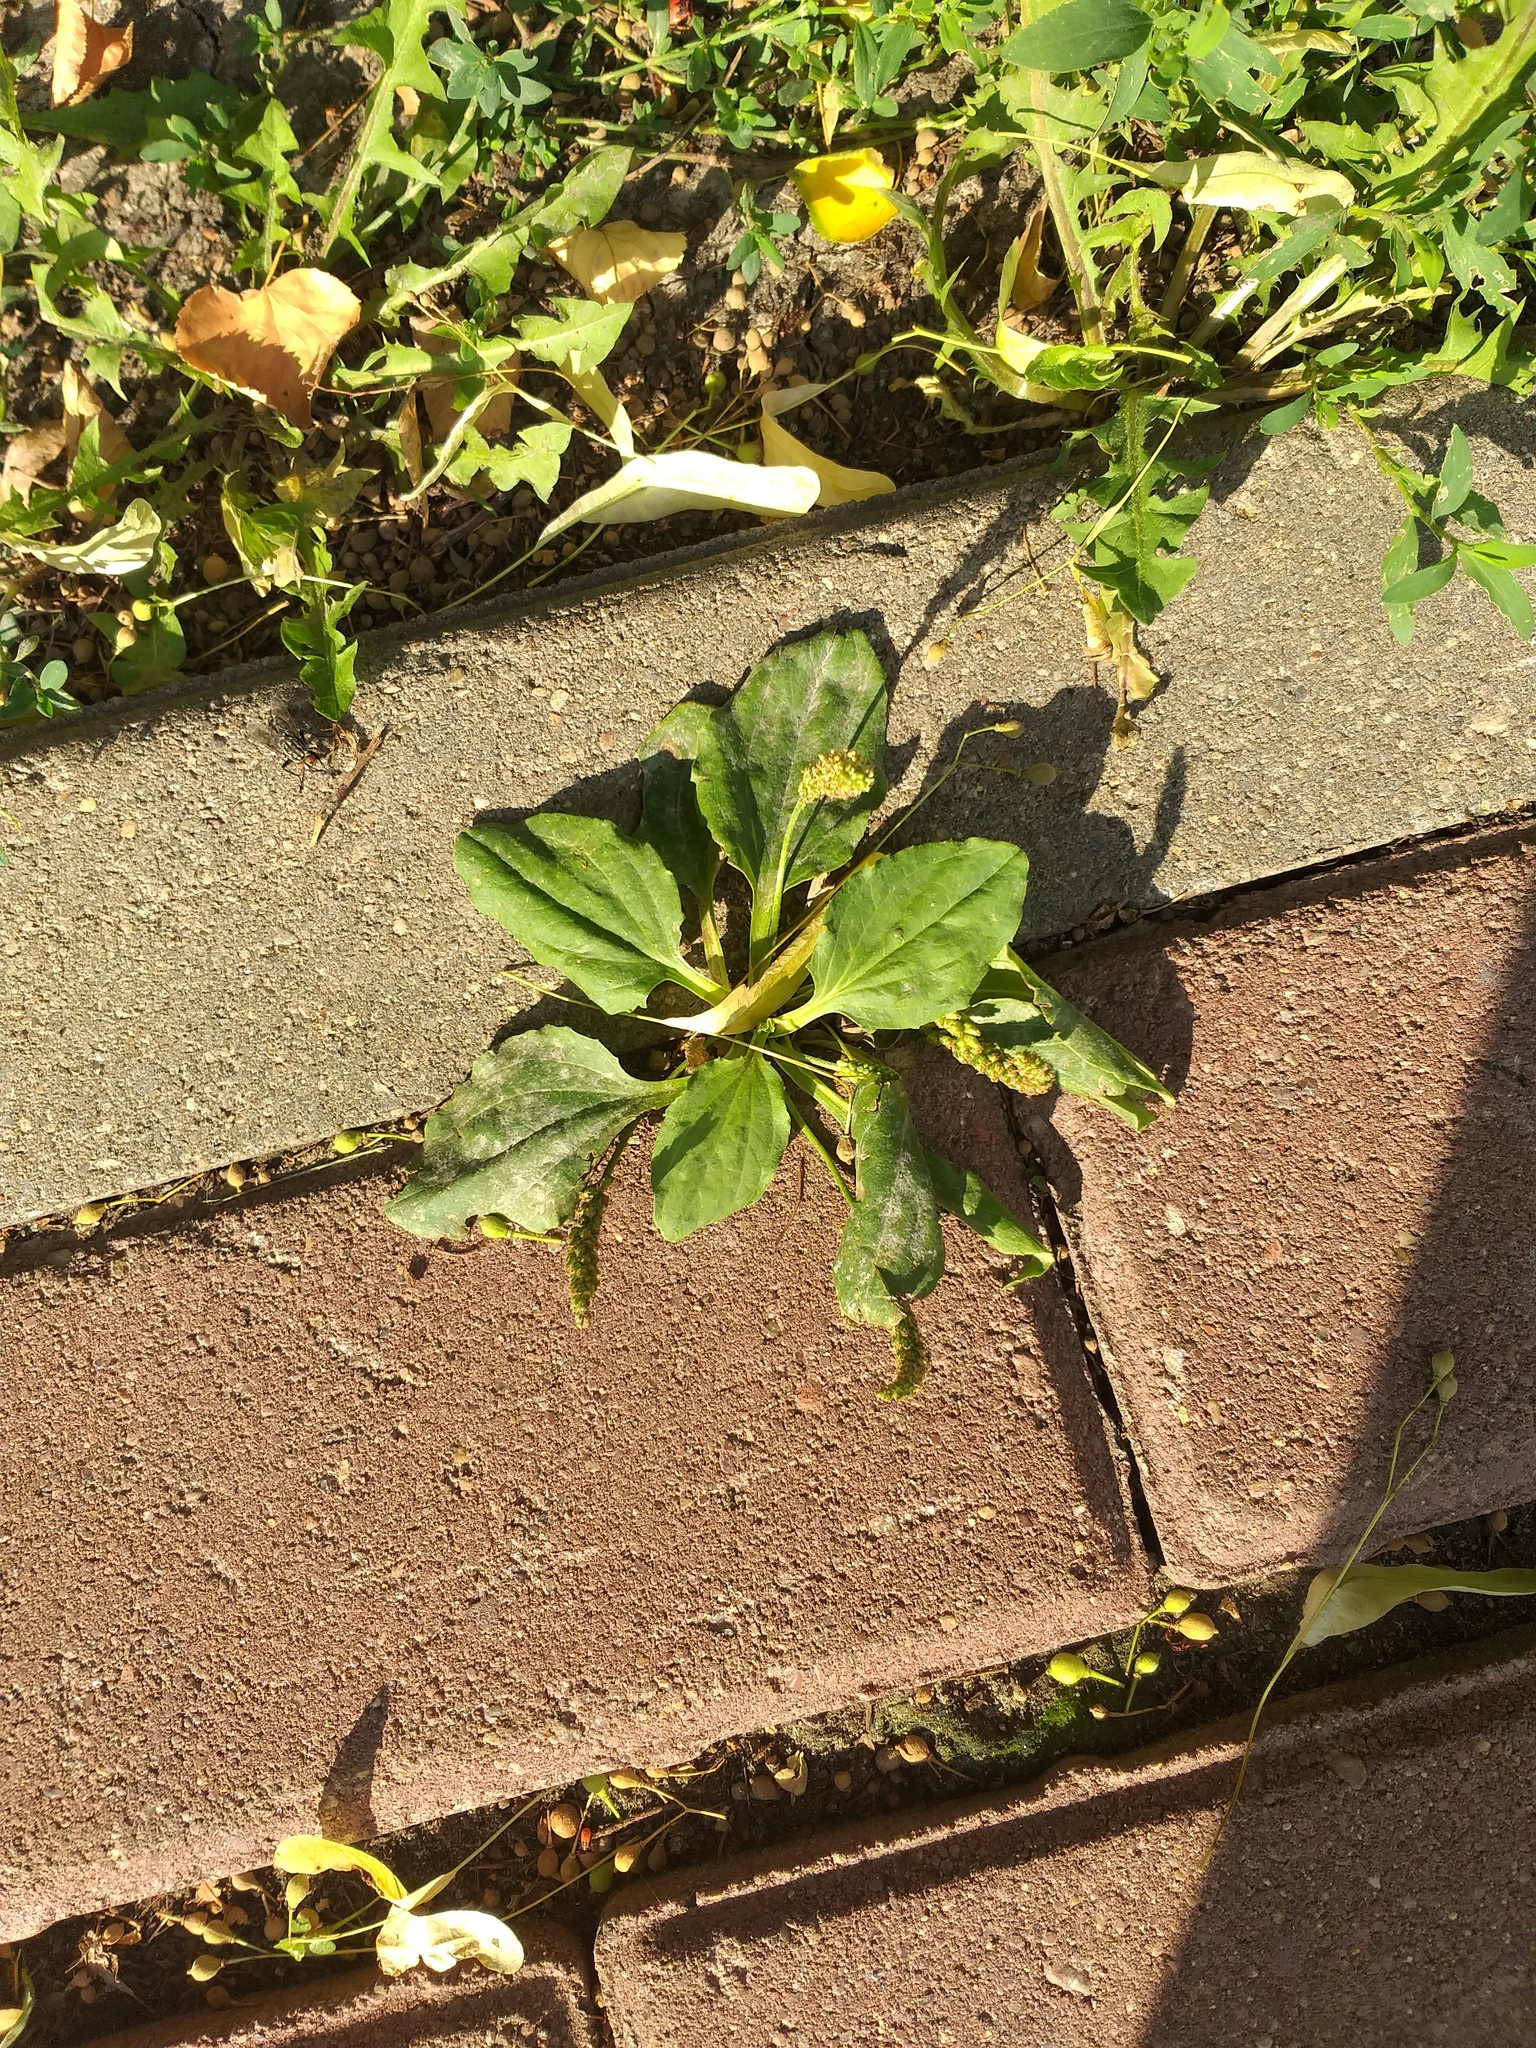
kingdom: Plantae
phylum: Tracheophyta
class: Magnoliopsida
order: Lamiales
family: Plantaginaceae
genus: Plantago
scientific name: Plantago major
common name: Common plantain
